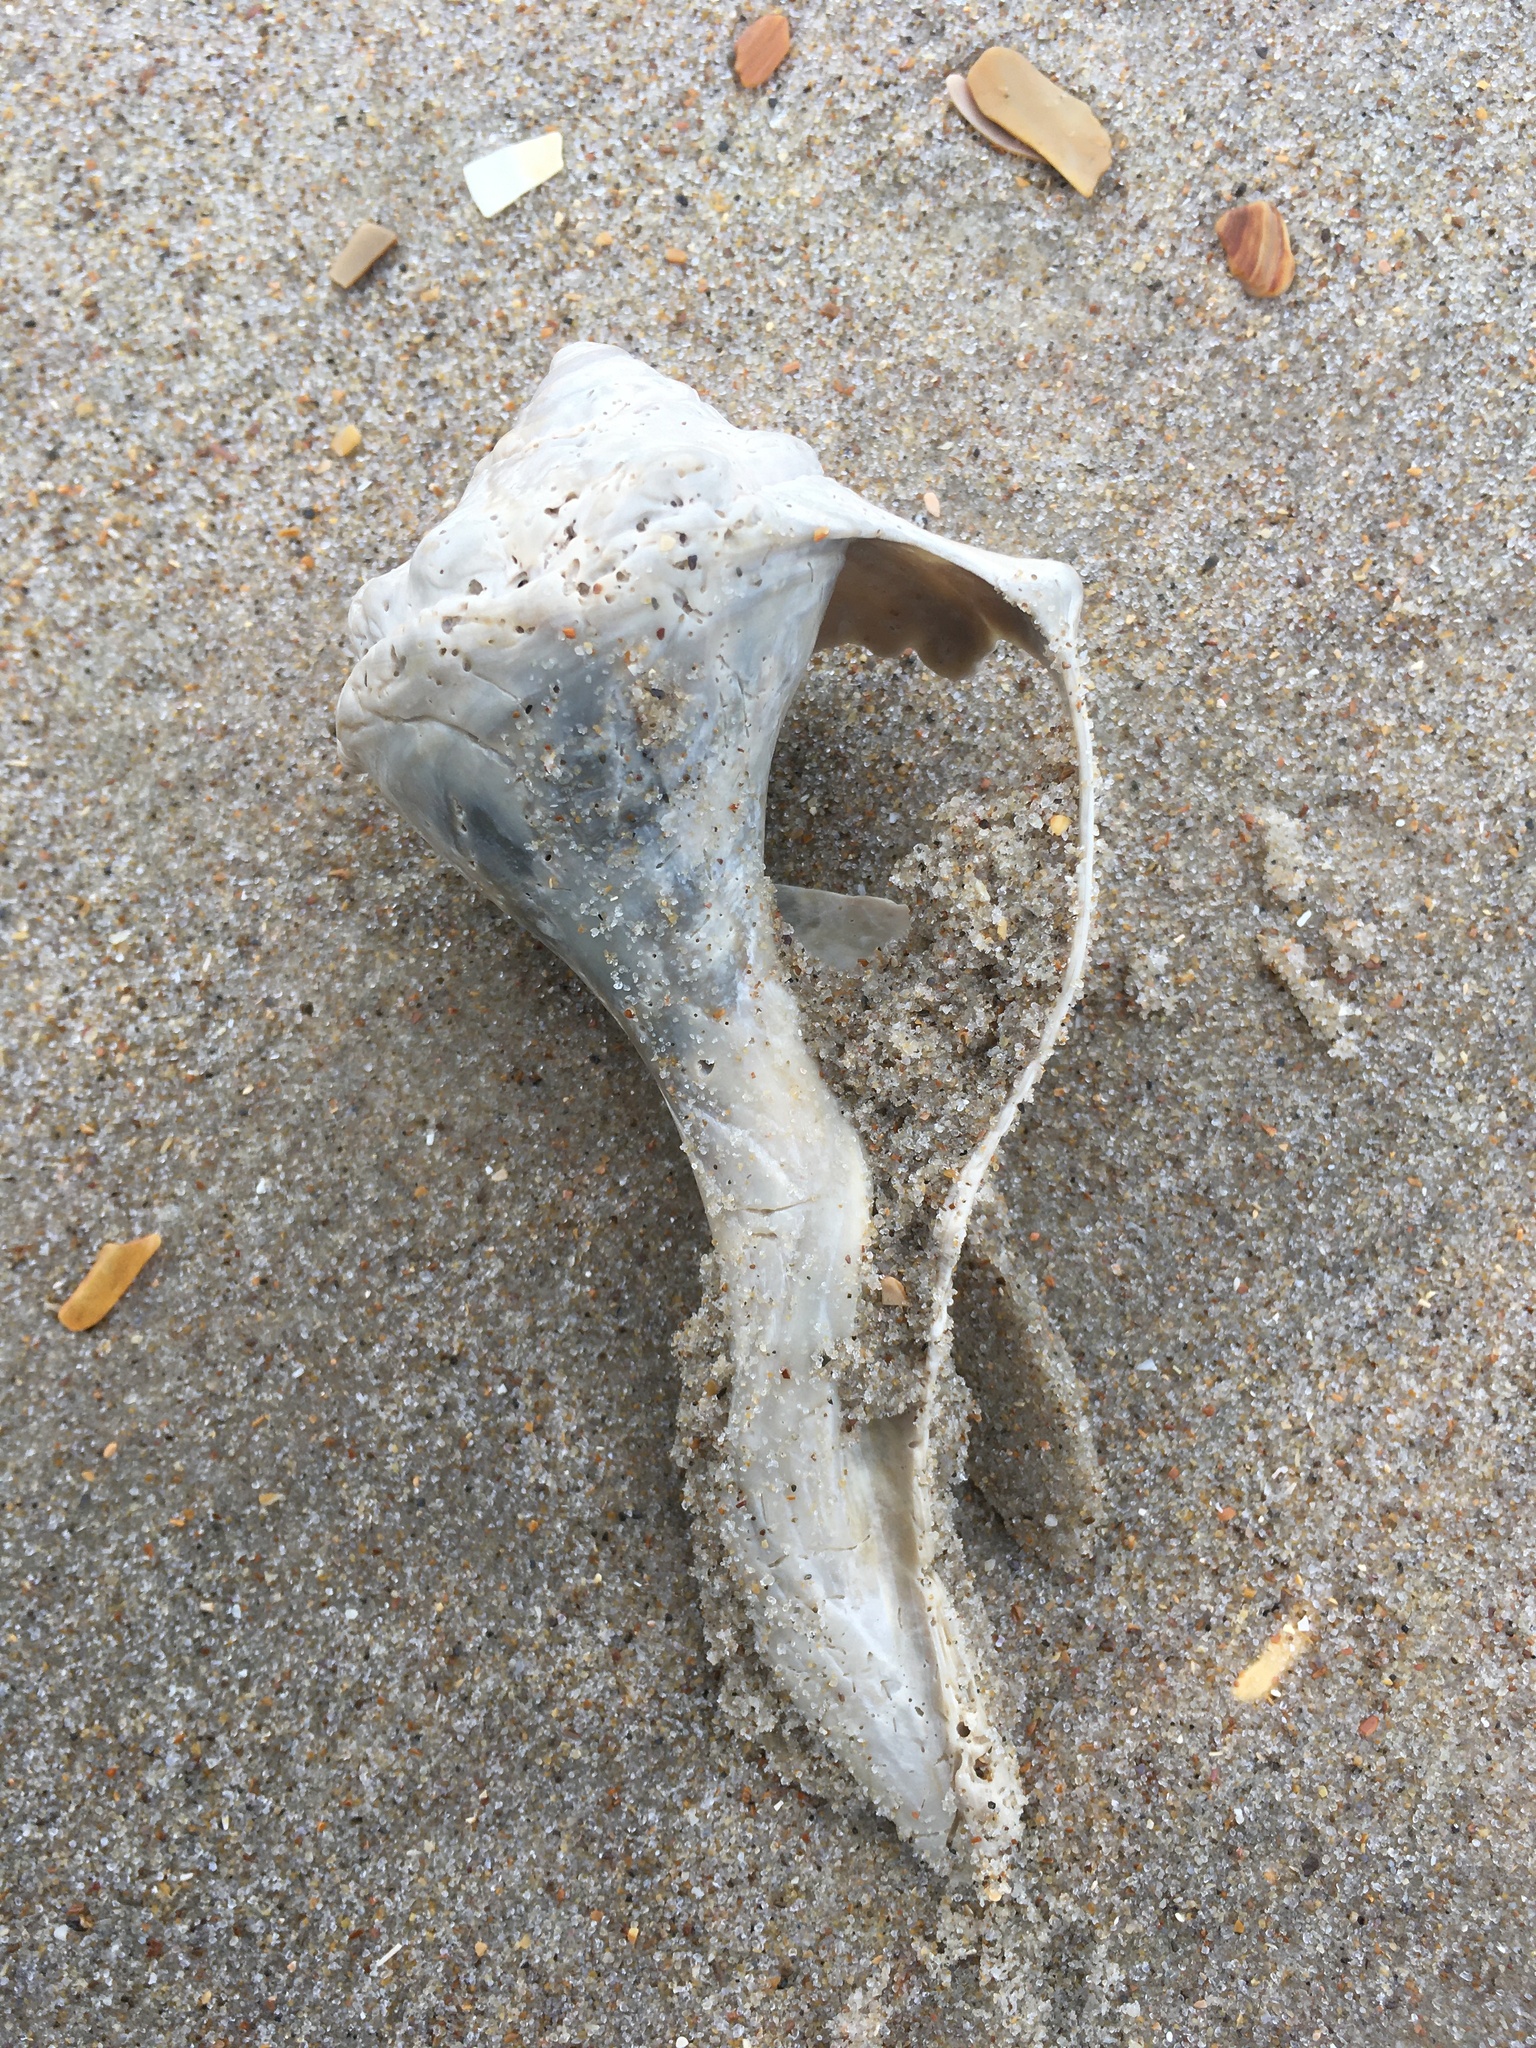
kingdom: Animalia
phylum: Mollusca
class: Gastropoda
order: Neogastropoda
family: Busyconidae
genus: Busycon
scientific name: Busycon carica
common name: Knobbed whelk
